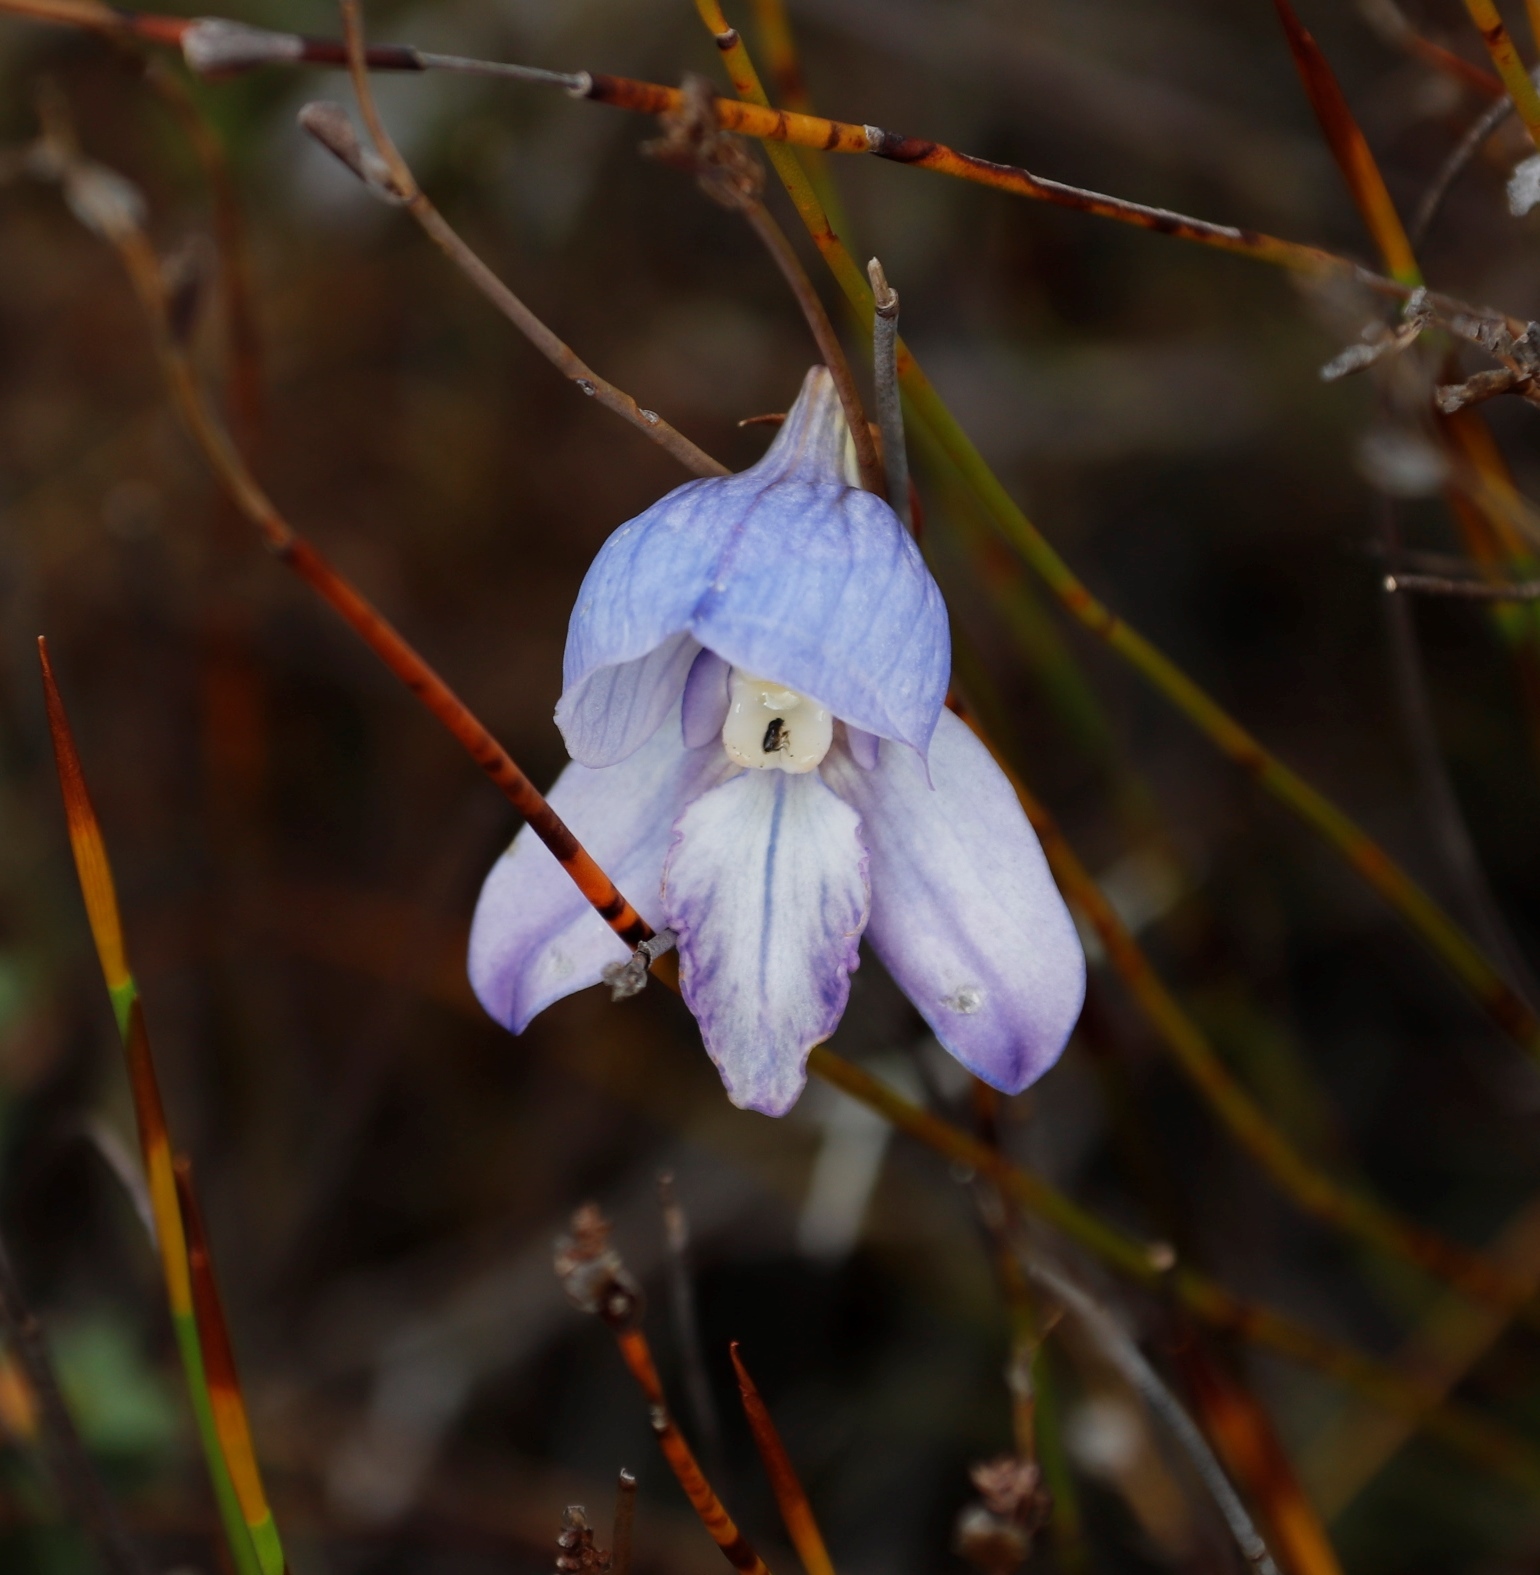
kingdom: Plantae
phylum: Tracheophyta
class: Liliopsida
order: Asparagales
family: Orchidaceae
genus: Disa
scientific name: Disa purpurascens
